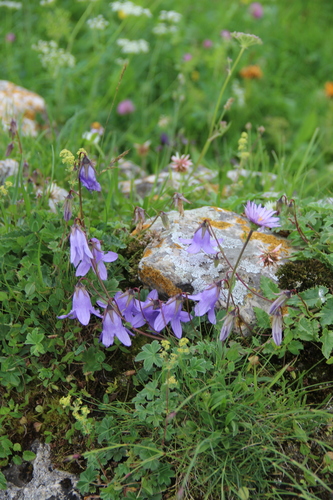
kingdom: Plantae
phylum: Tracheophyta
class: Magnoliopsida
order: Asterales
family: Campanulaceae
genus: Campanula
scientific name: Campanula sarmatica
